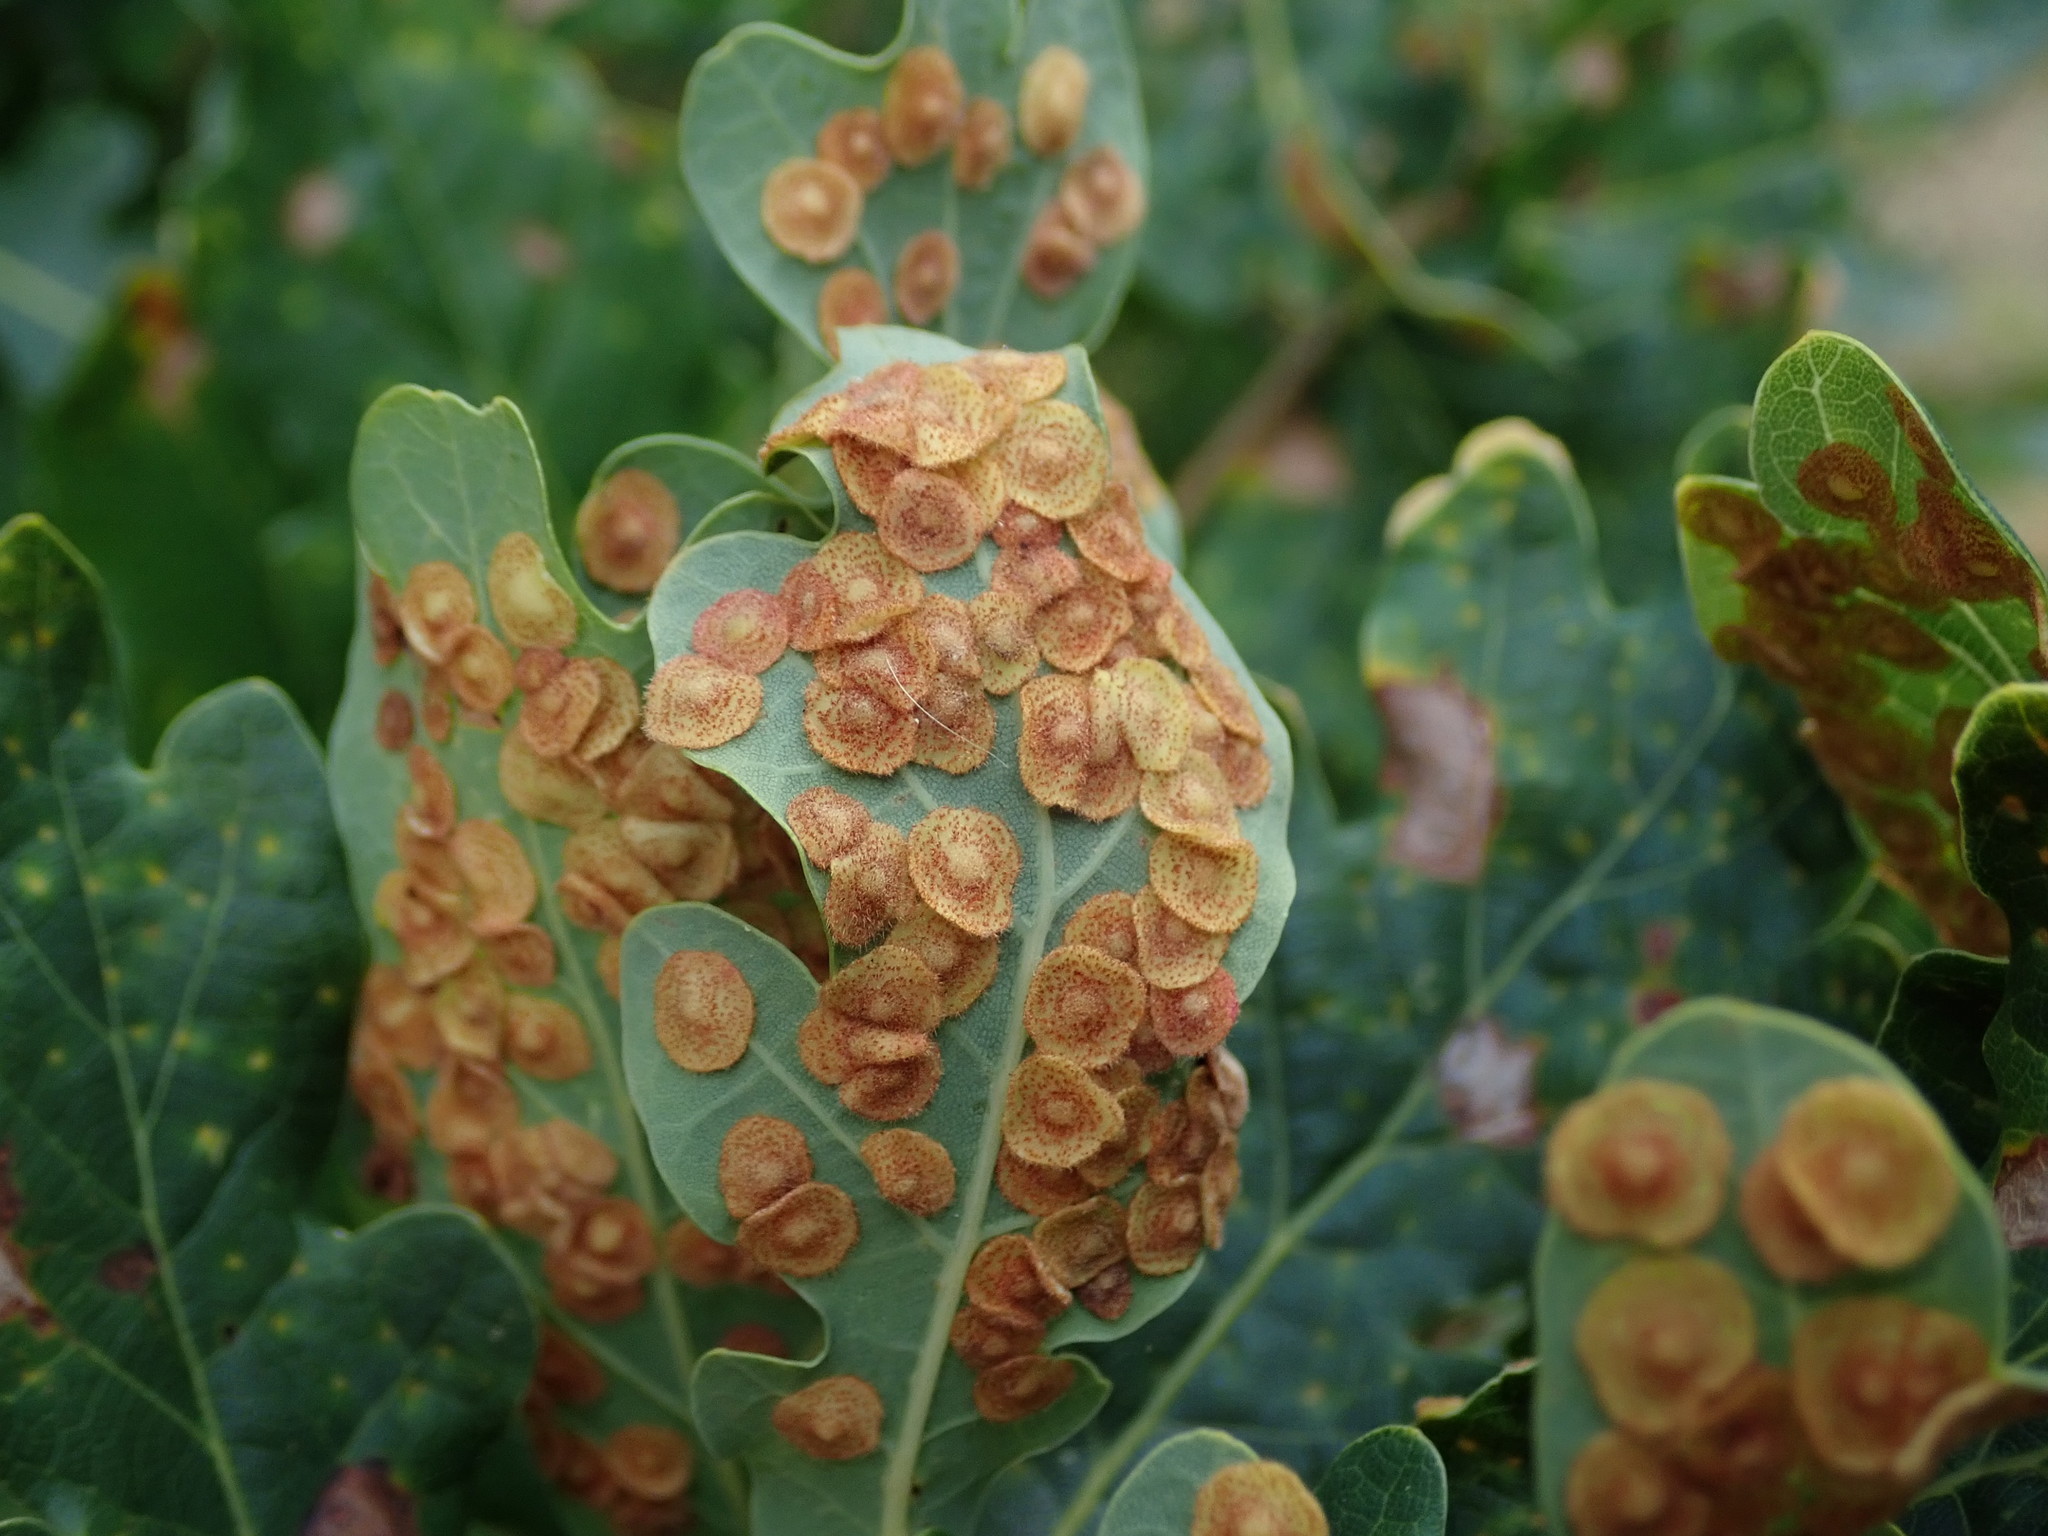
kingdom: Animalia
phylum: Arthropoda
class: Insecta
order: Hymenoptera
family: Cynipidae
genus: Neuroterus
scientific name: Neuroterus quercusbaccarum
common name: Common spangle gall
